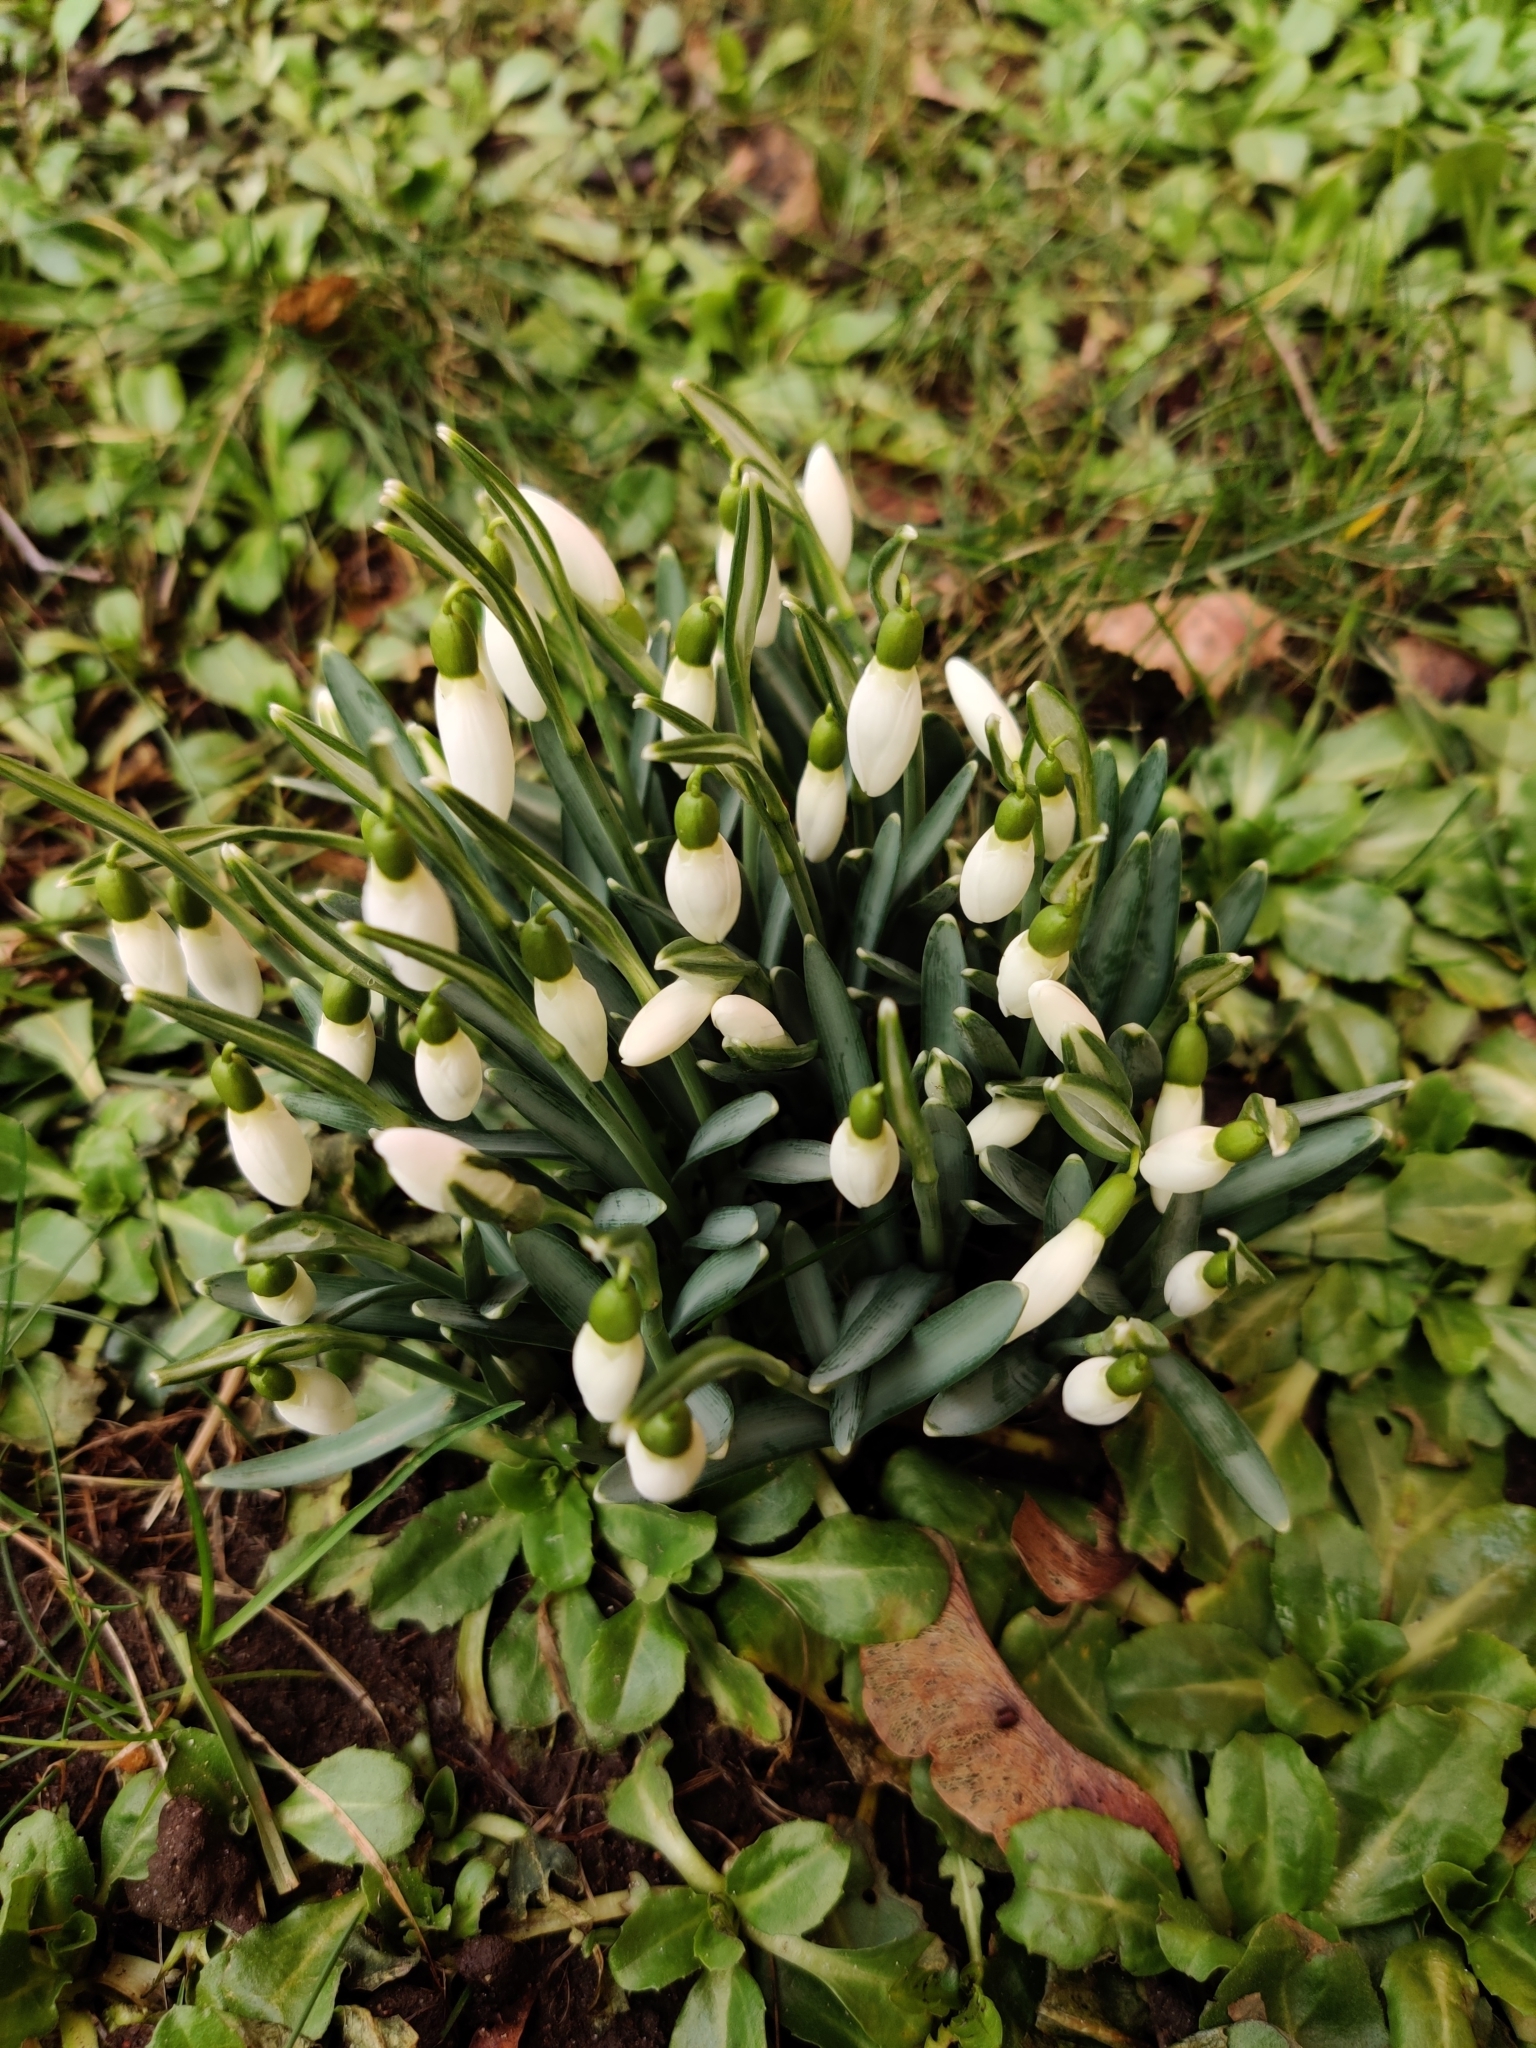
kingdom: Plantae
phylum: Tracheophyta
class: Liliopsida
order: Asparagales
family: Amaryllidaceae
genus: Galanthus
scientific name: Galanthus nivalis
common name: Snowdrop
